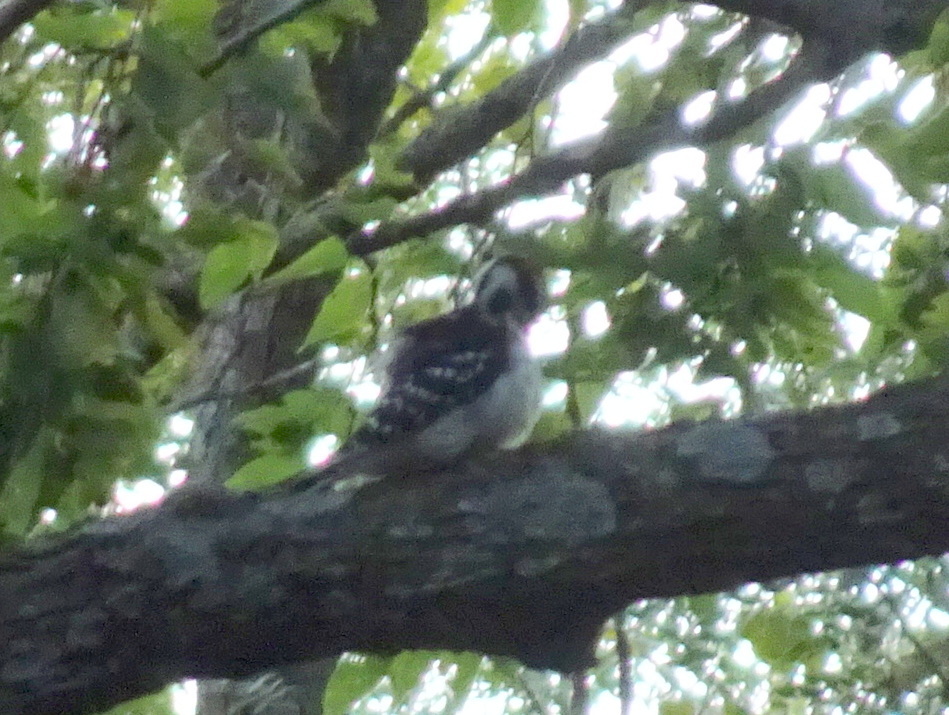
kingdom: Animalia
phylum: Chordata
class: Aves
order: Piciformes
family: Picidae
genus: Leuconotopicus
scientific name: Leuconotopicus villosus
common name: Hairy woodpecker
